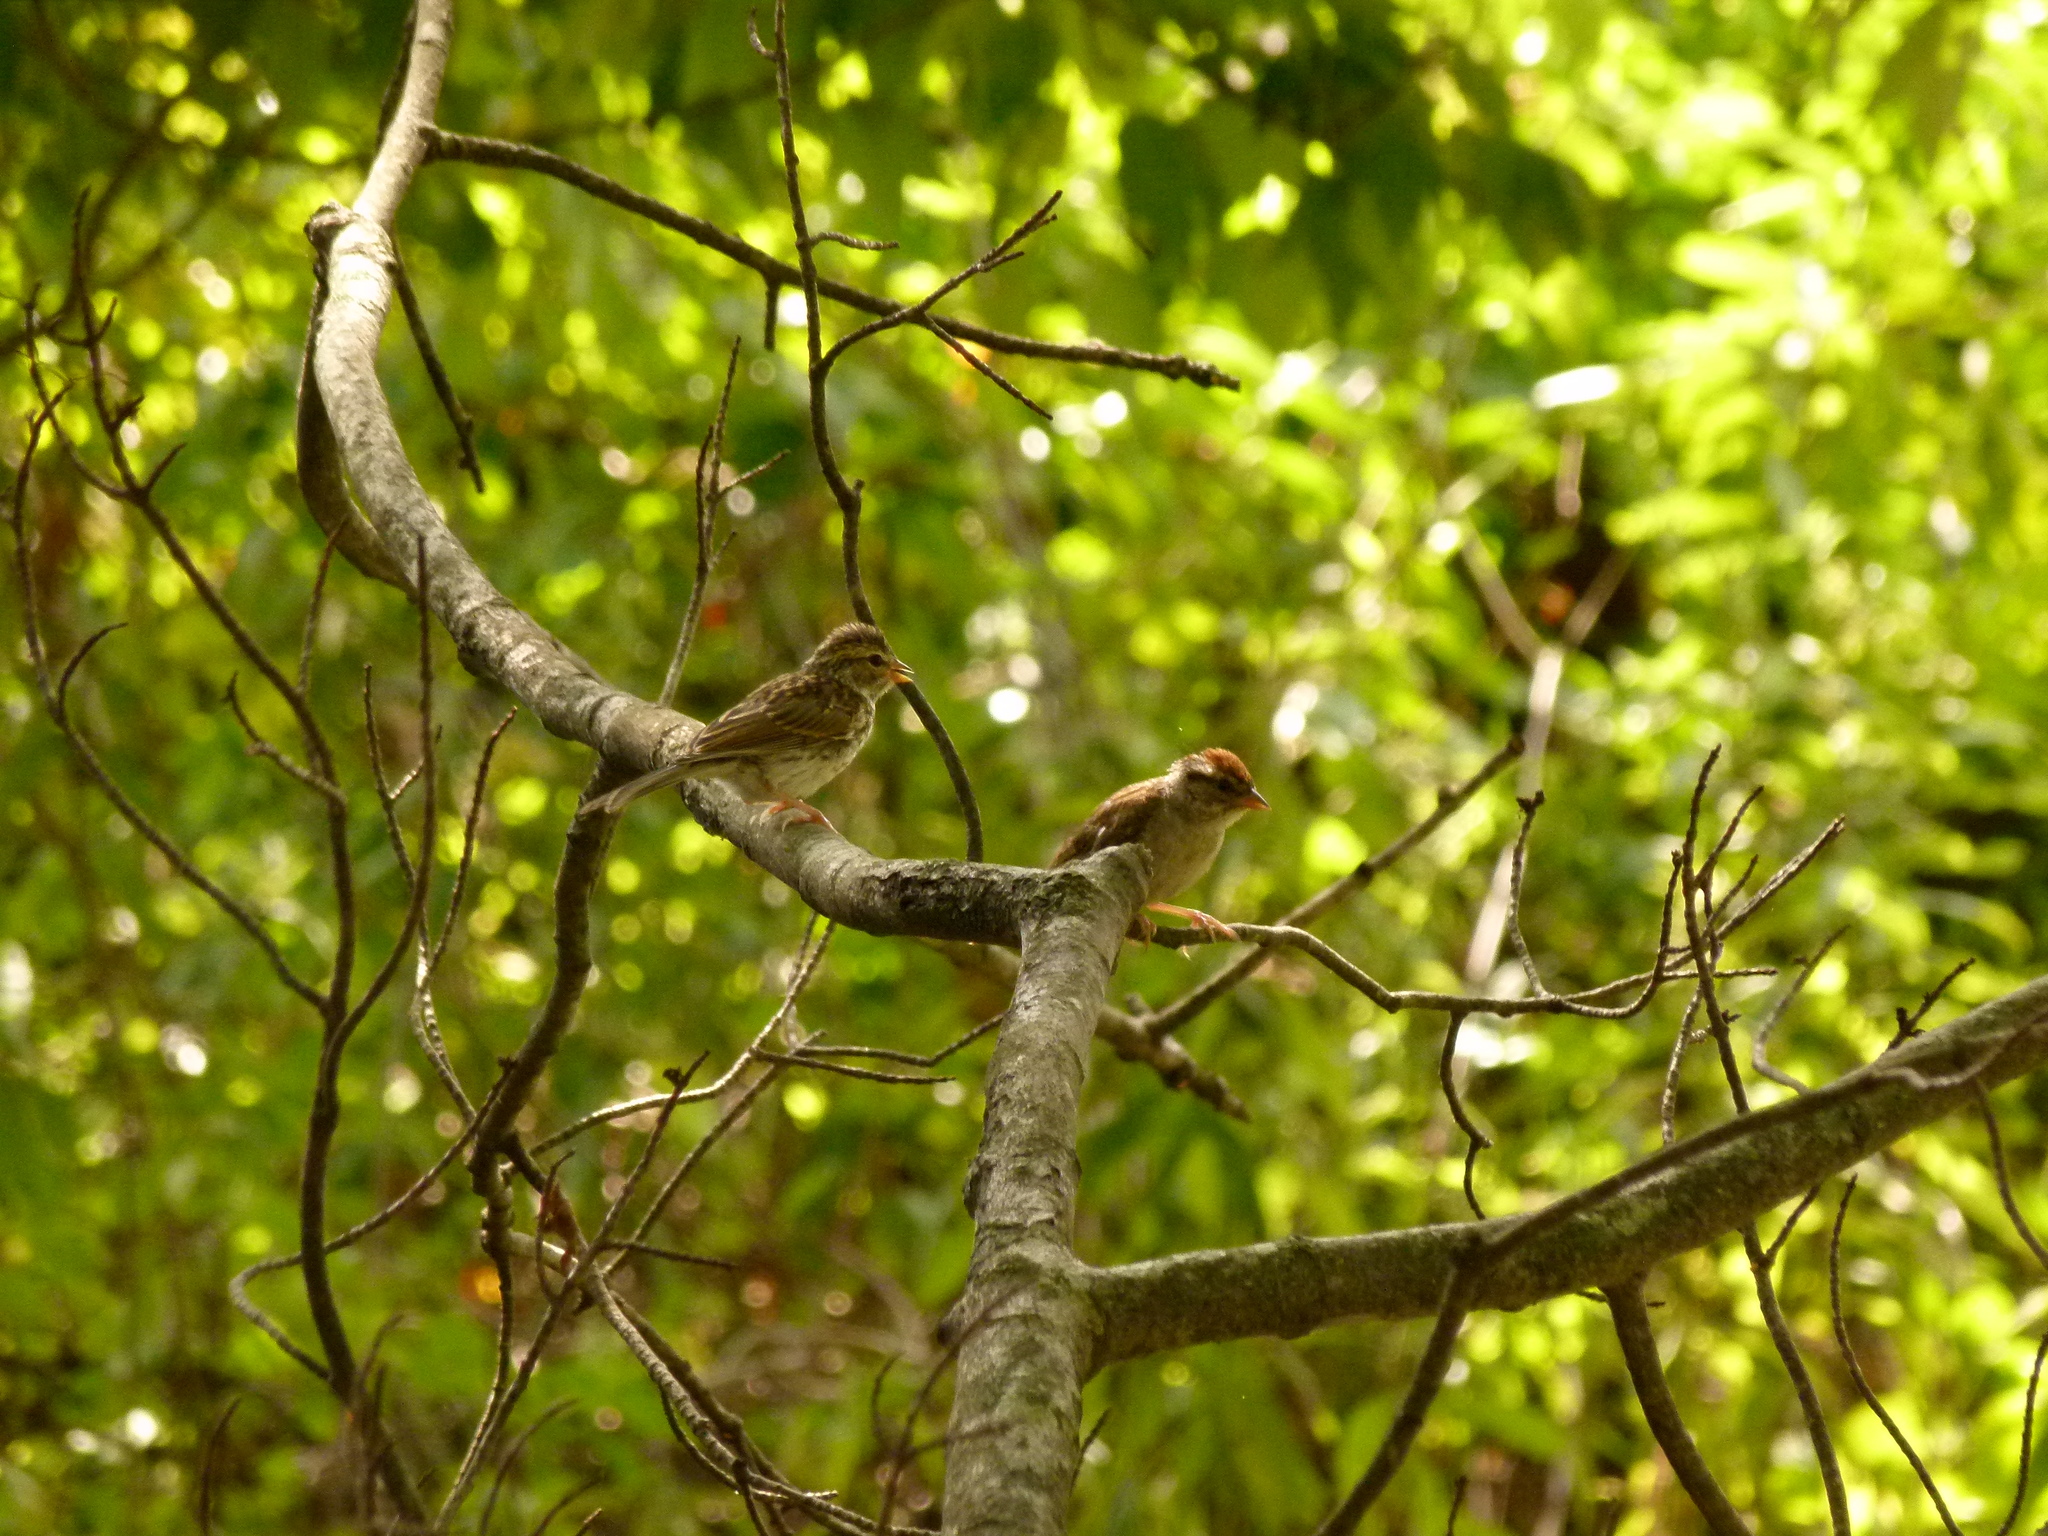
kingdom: Animalia
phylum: Chordata
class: Aves
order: Passeriformes
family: Passerellidae
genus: Spizella
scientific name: Spizella passerina
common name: Chipping sparrow
